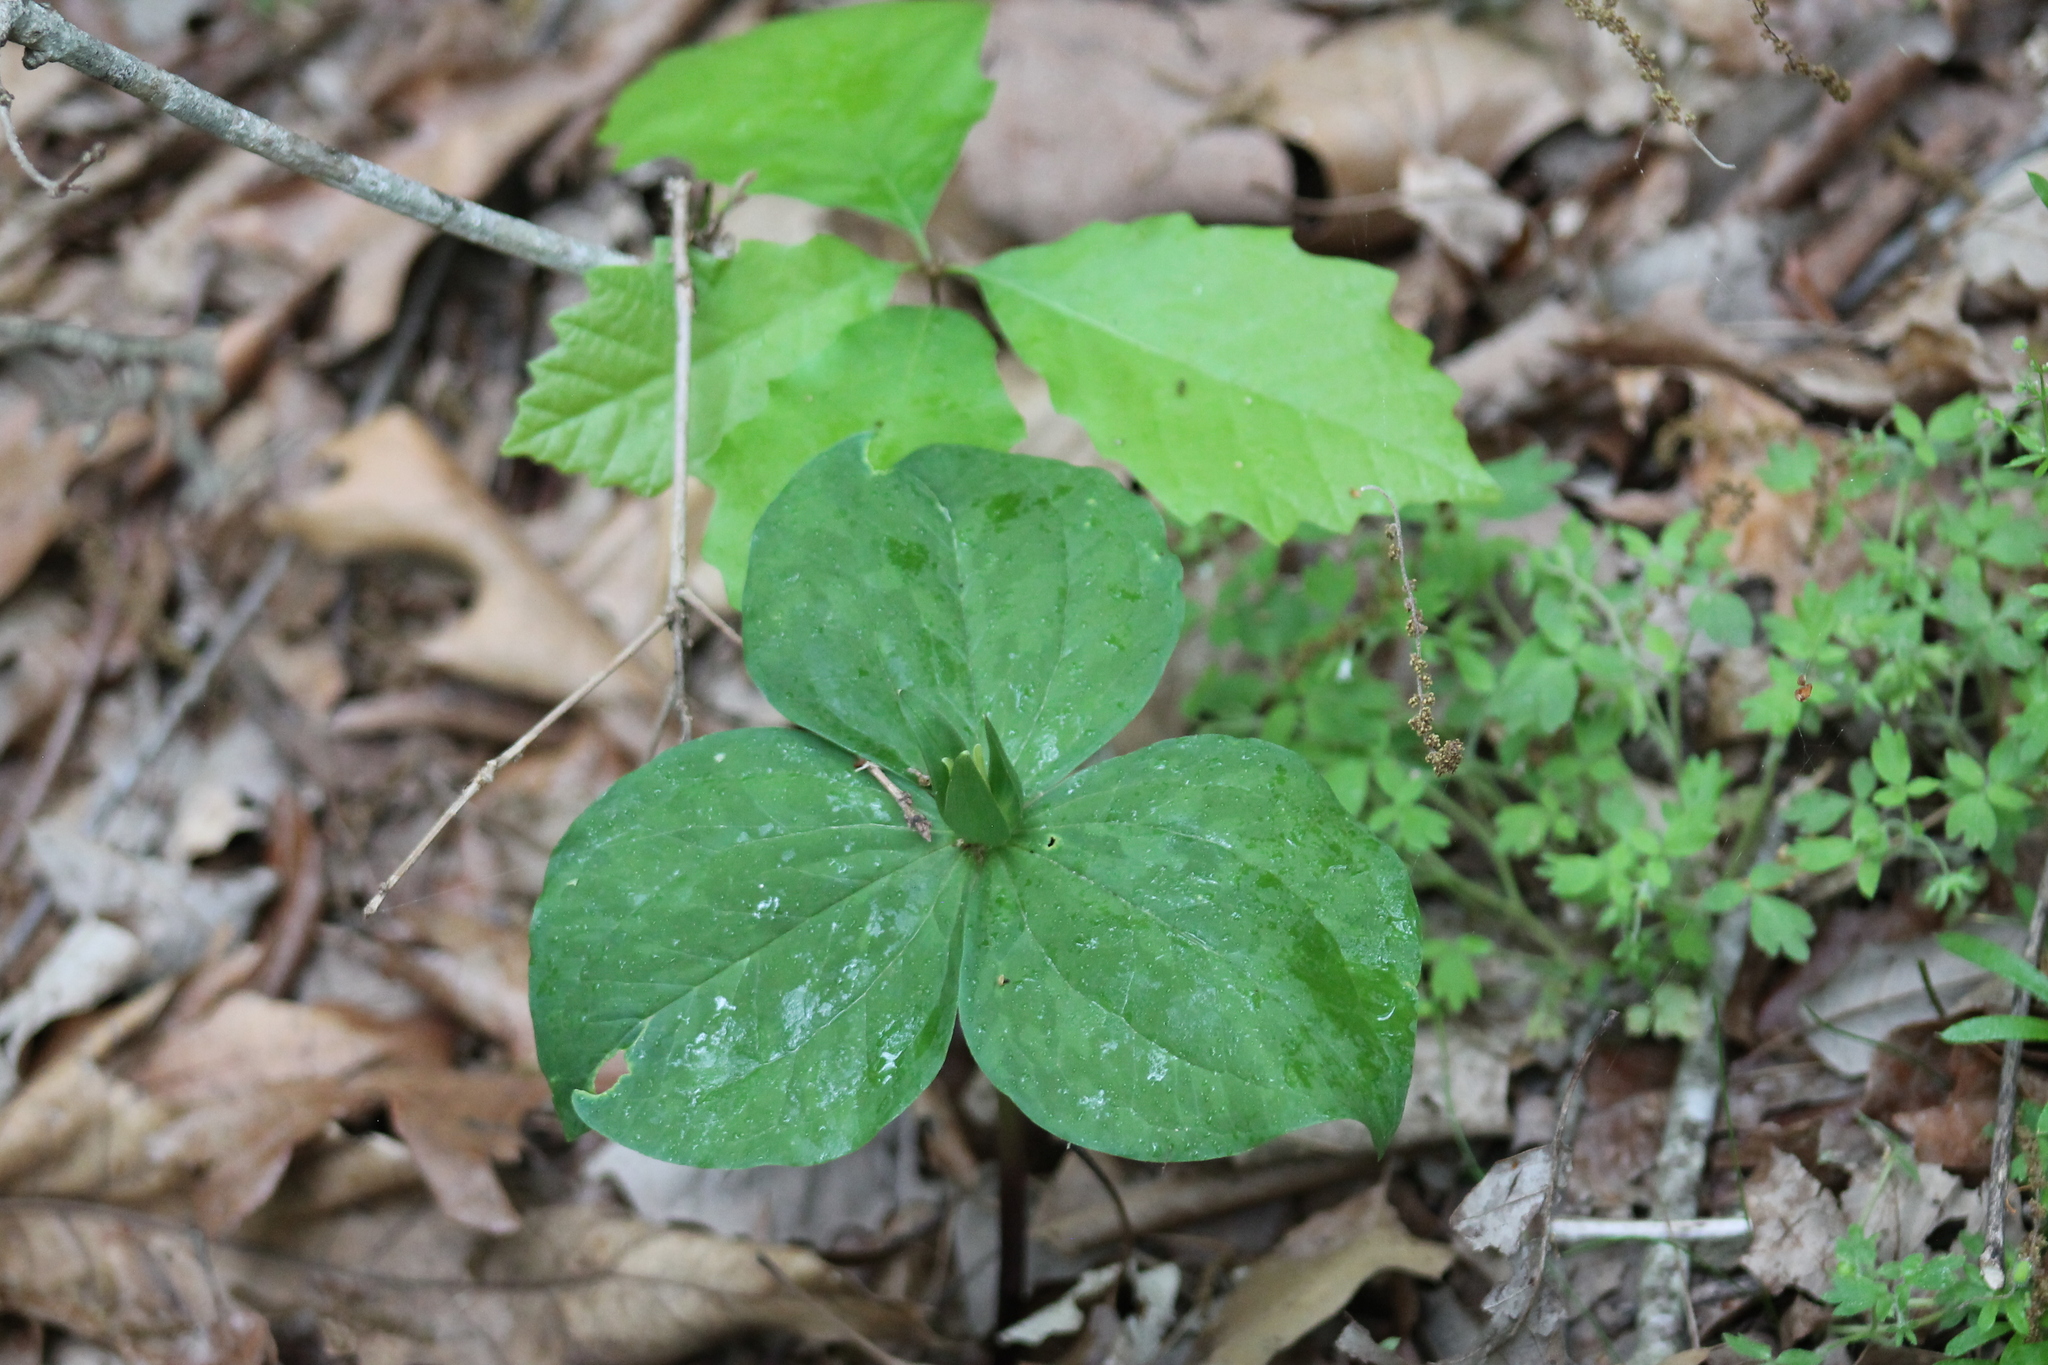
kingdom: Plantae
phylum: Tracheophyta
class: Liliopsida
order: Liliales
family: Melanthiaceae
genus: Trillium
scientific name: Trillium sessile
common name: Sessile trillium
